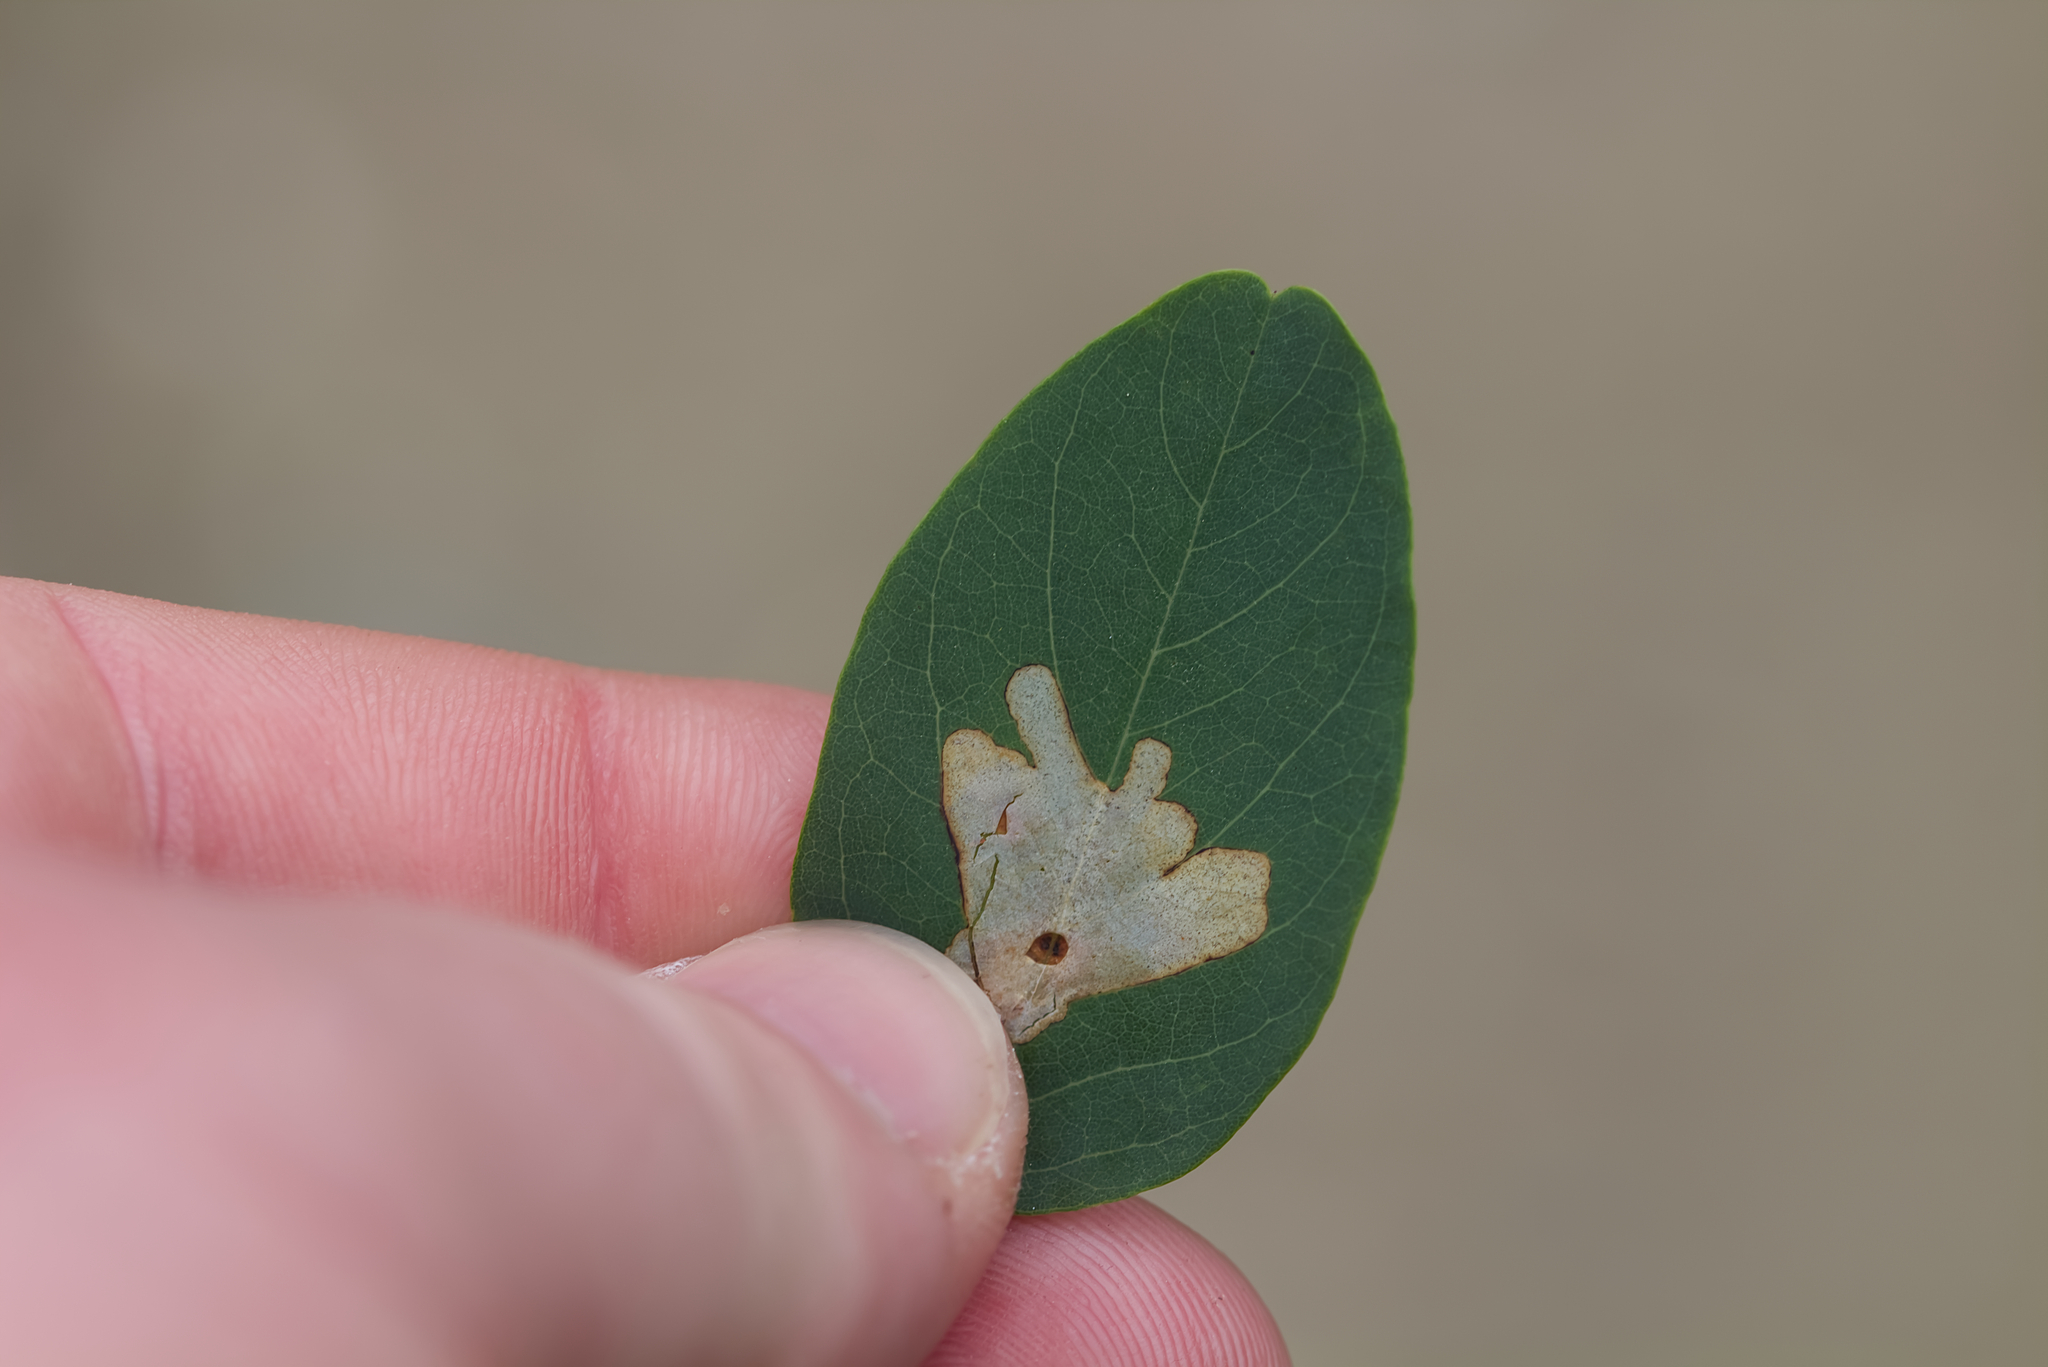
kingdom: Animalia
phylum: Arthropoda
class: Insecta
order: Lepidoptera
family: Gracillariidae
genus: Parectopa
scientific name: Parectopa robiniella
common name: Locust digitate leafminer
